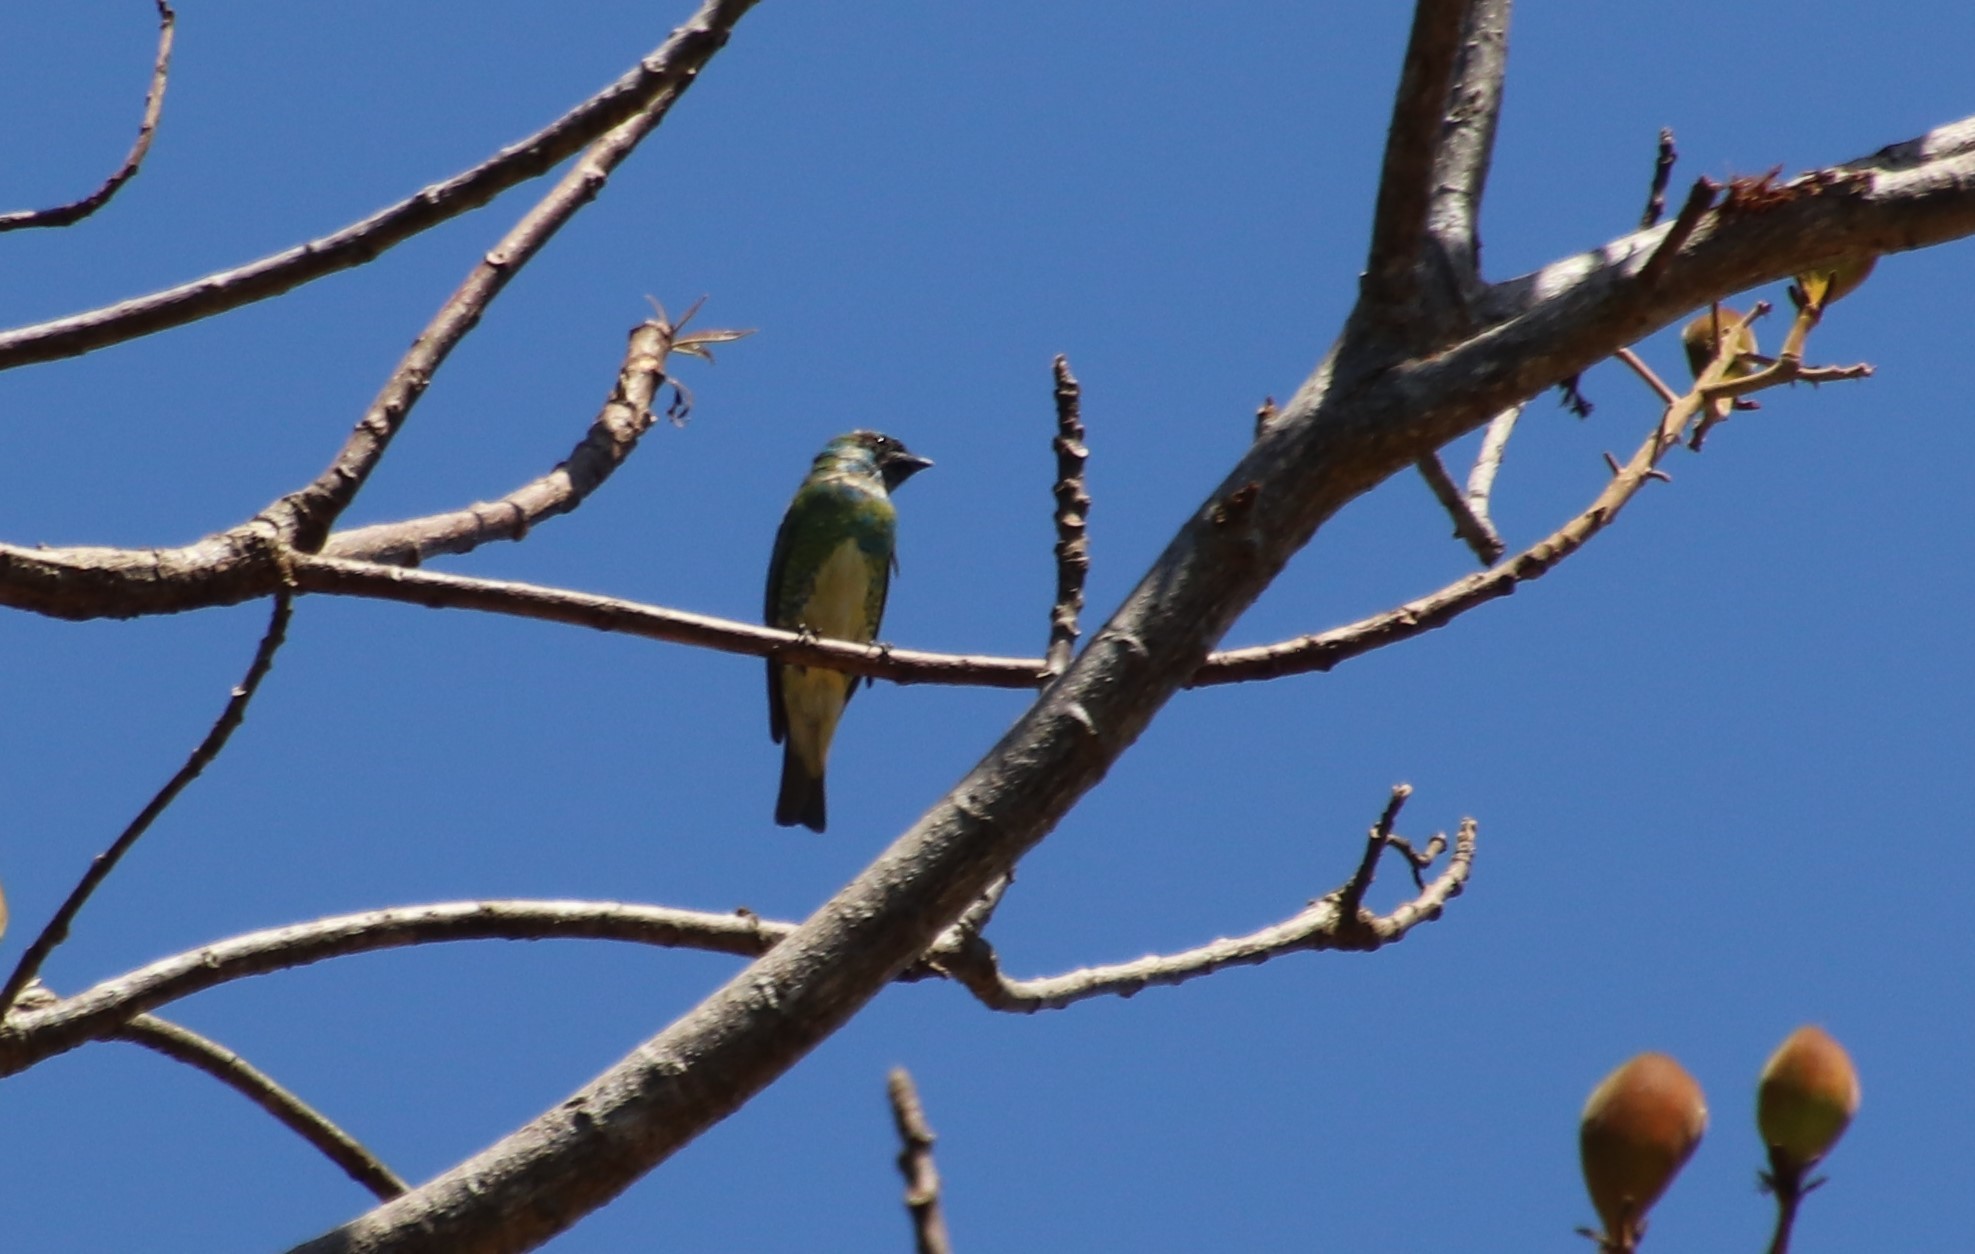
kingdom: Animalia
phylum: Chordata
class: Aves
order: Passeriformes
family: Thraupidae
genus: Tersina
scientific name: Tersina viridis
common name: Swallow tanager
